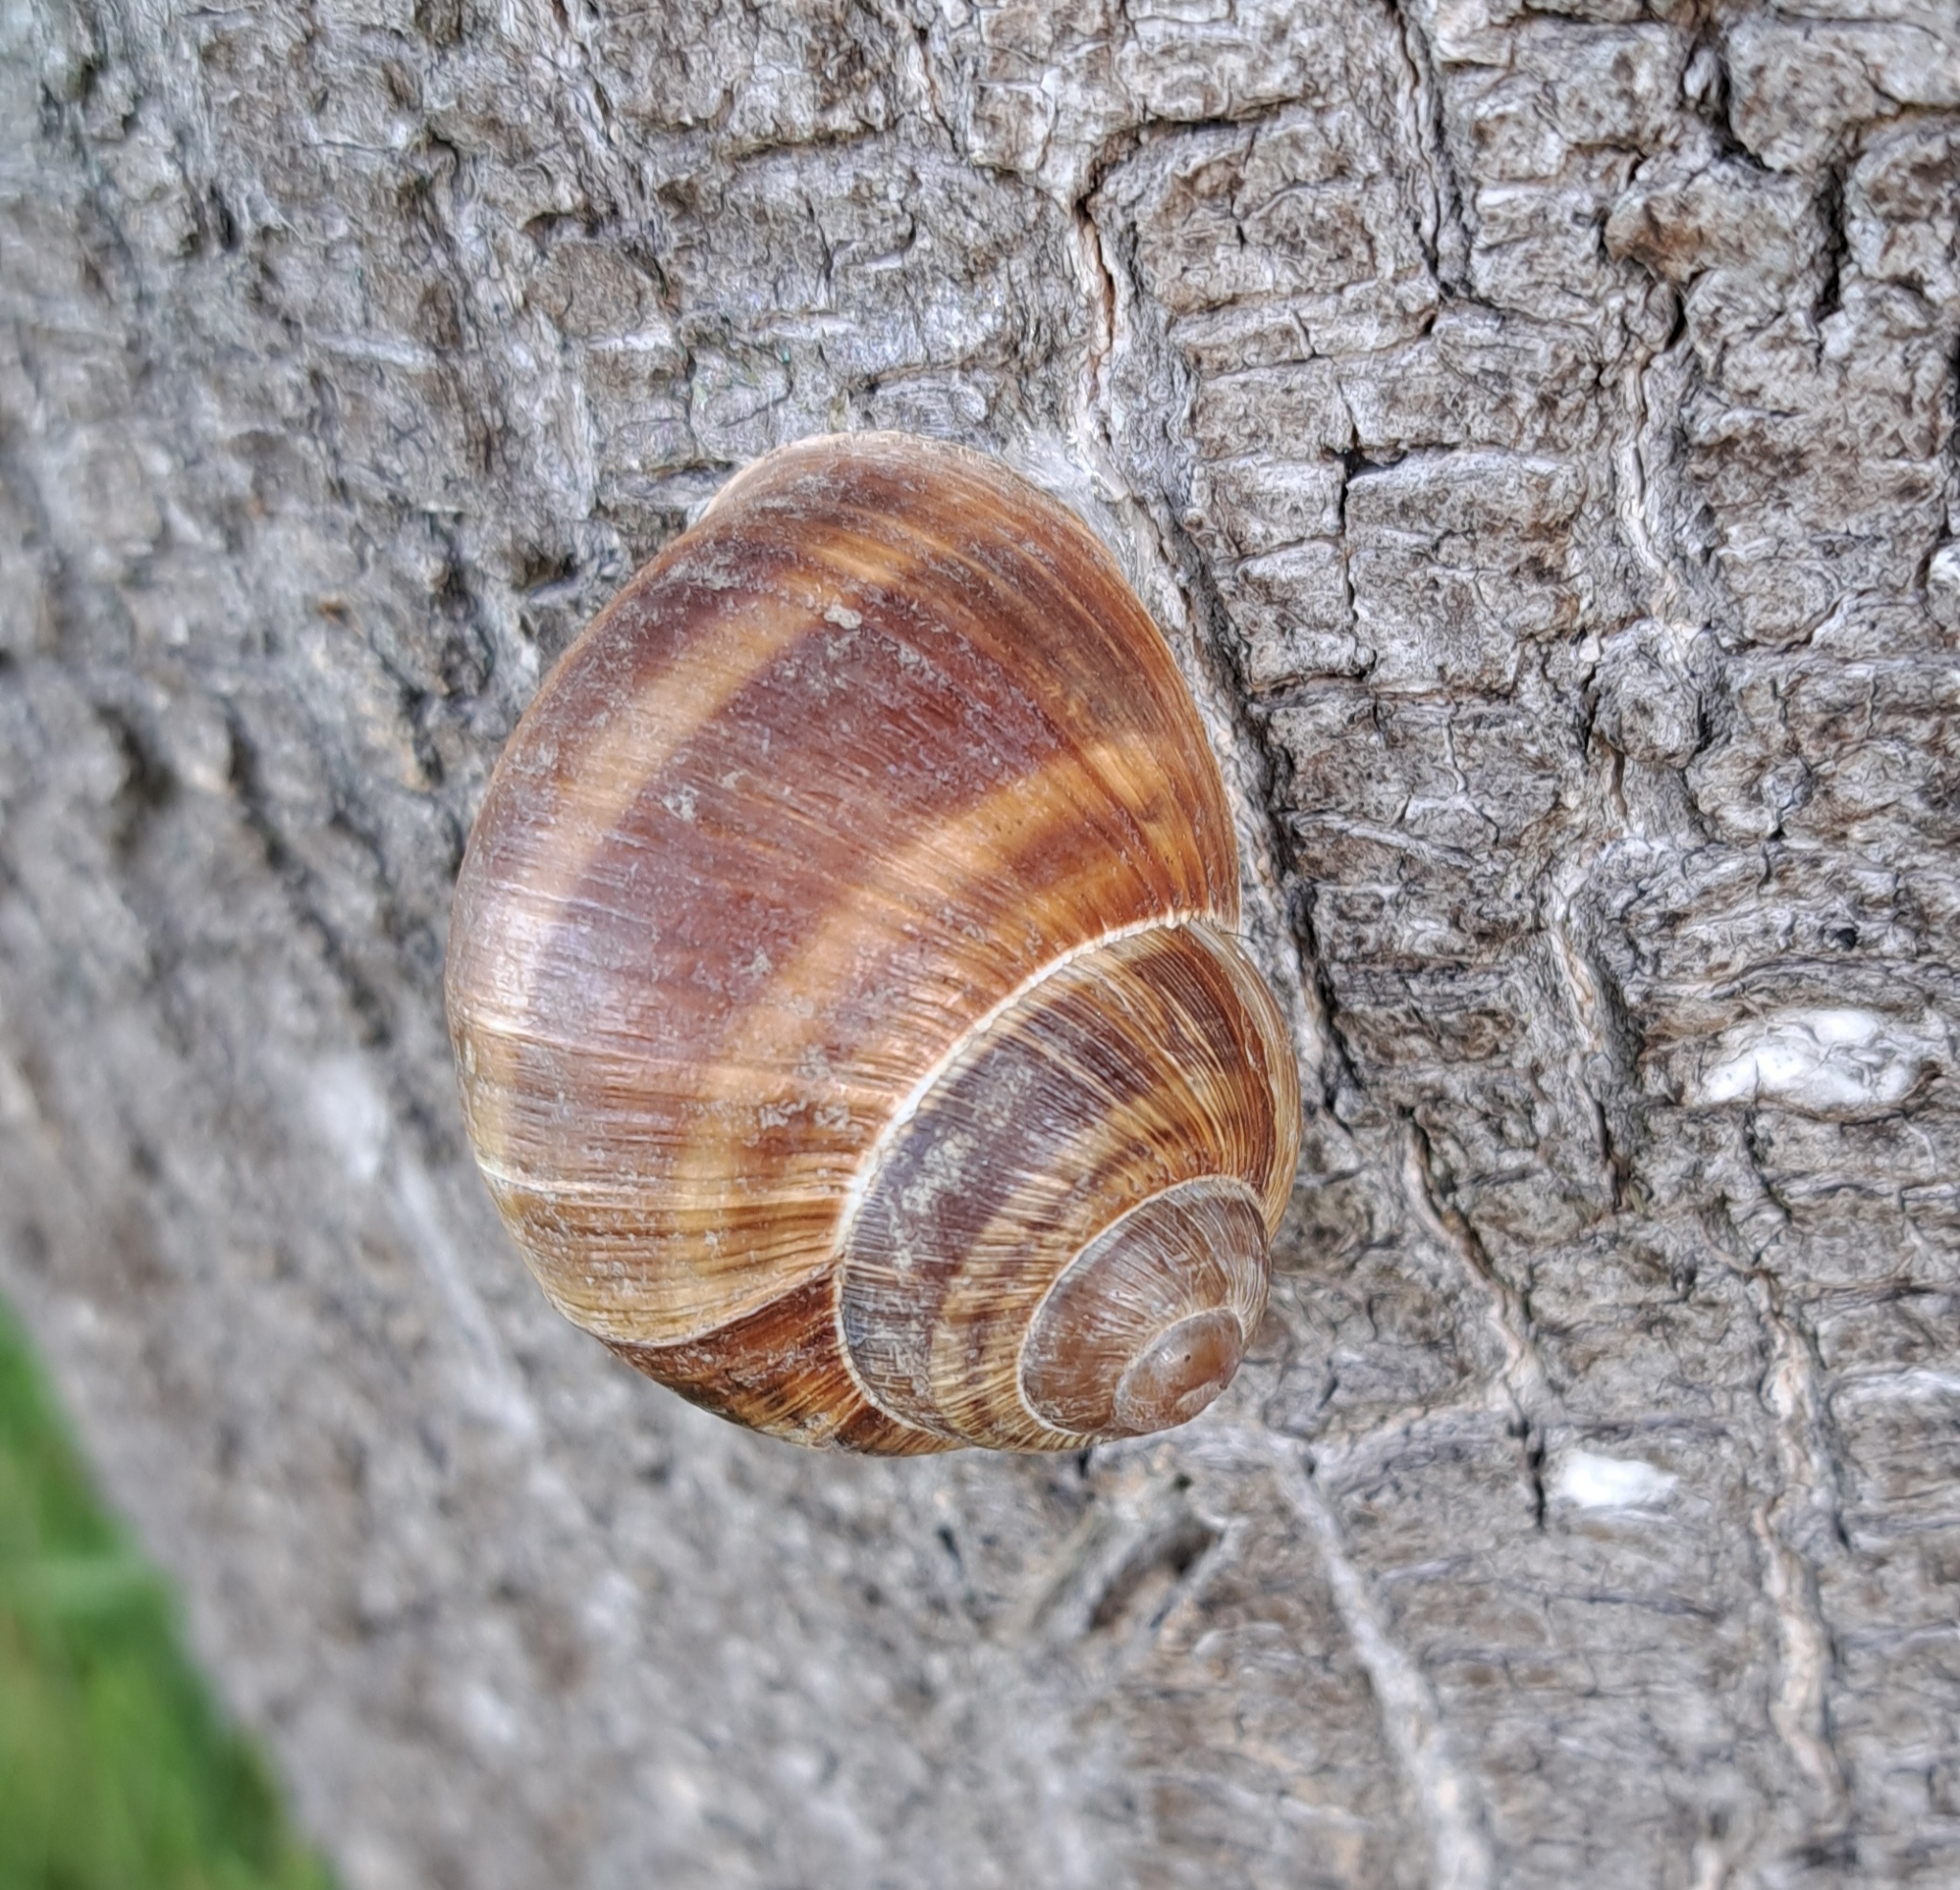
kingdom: Animalia
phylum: Mollusca
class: Gastropoda
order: Stylommatophora
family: Helicidae
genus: Helix
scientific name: Helix pomatia
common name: Roman snail
